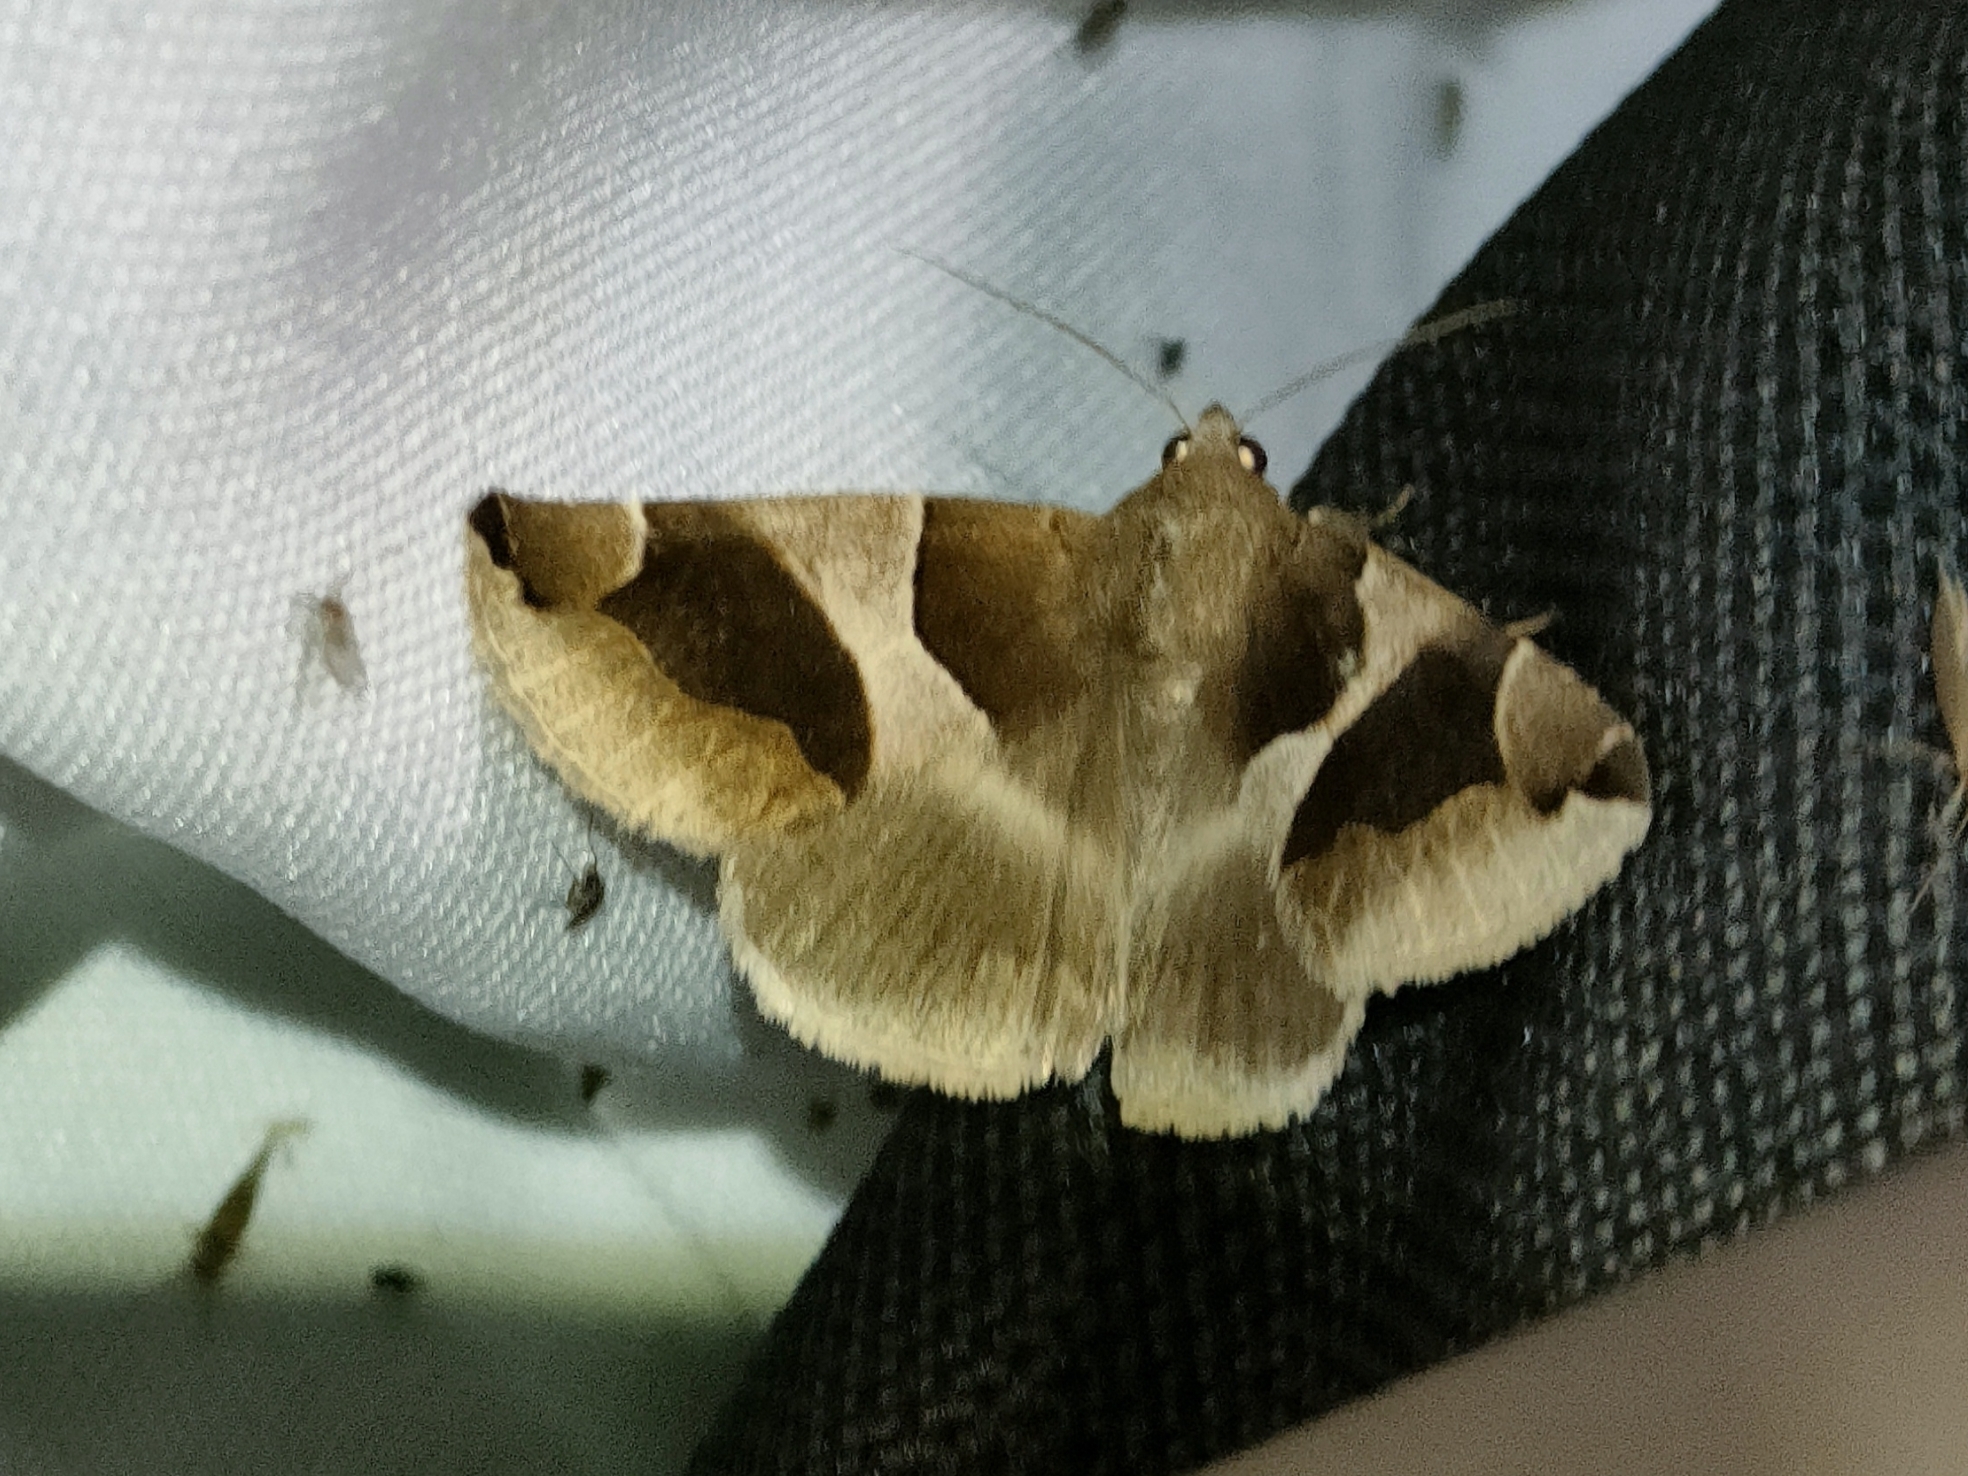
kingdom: Animalia
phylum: Arthropoda
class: Insecta
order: Lepidoptera
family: Erebidae
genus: Dysgonia
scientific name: Dysgonia algira
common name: Passenger
